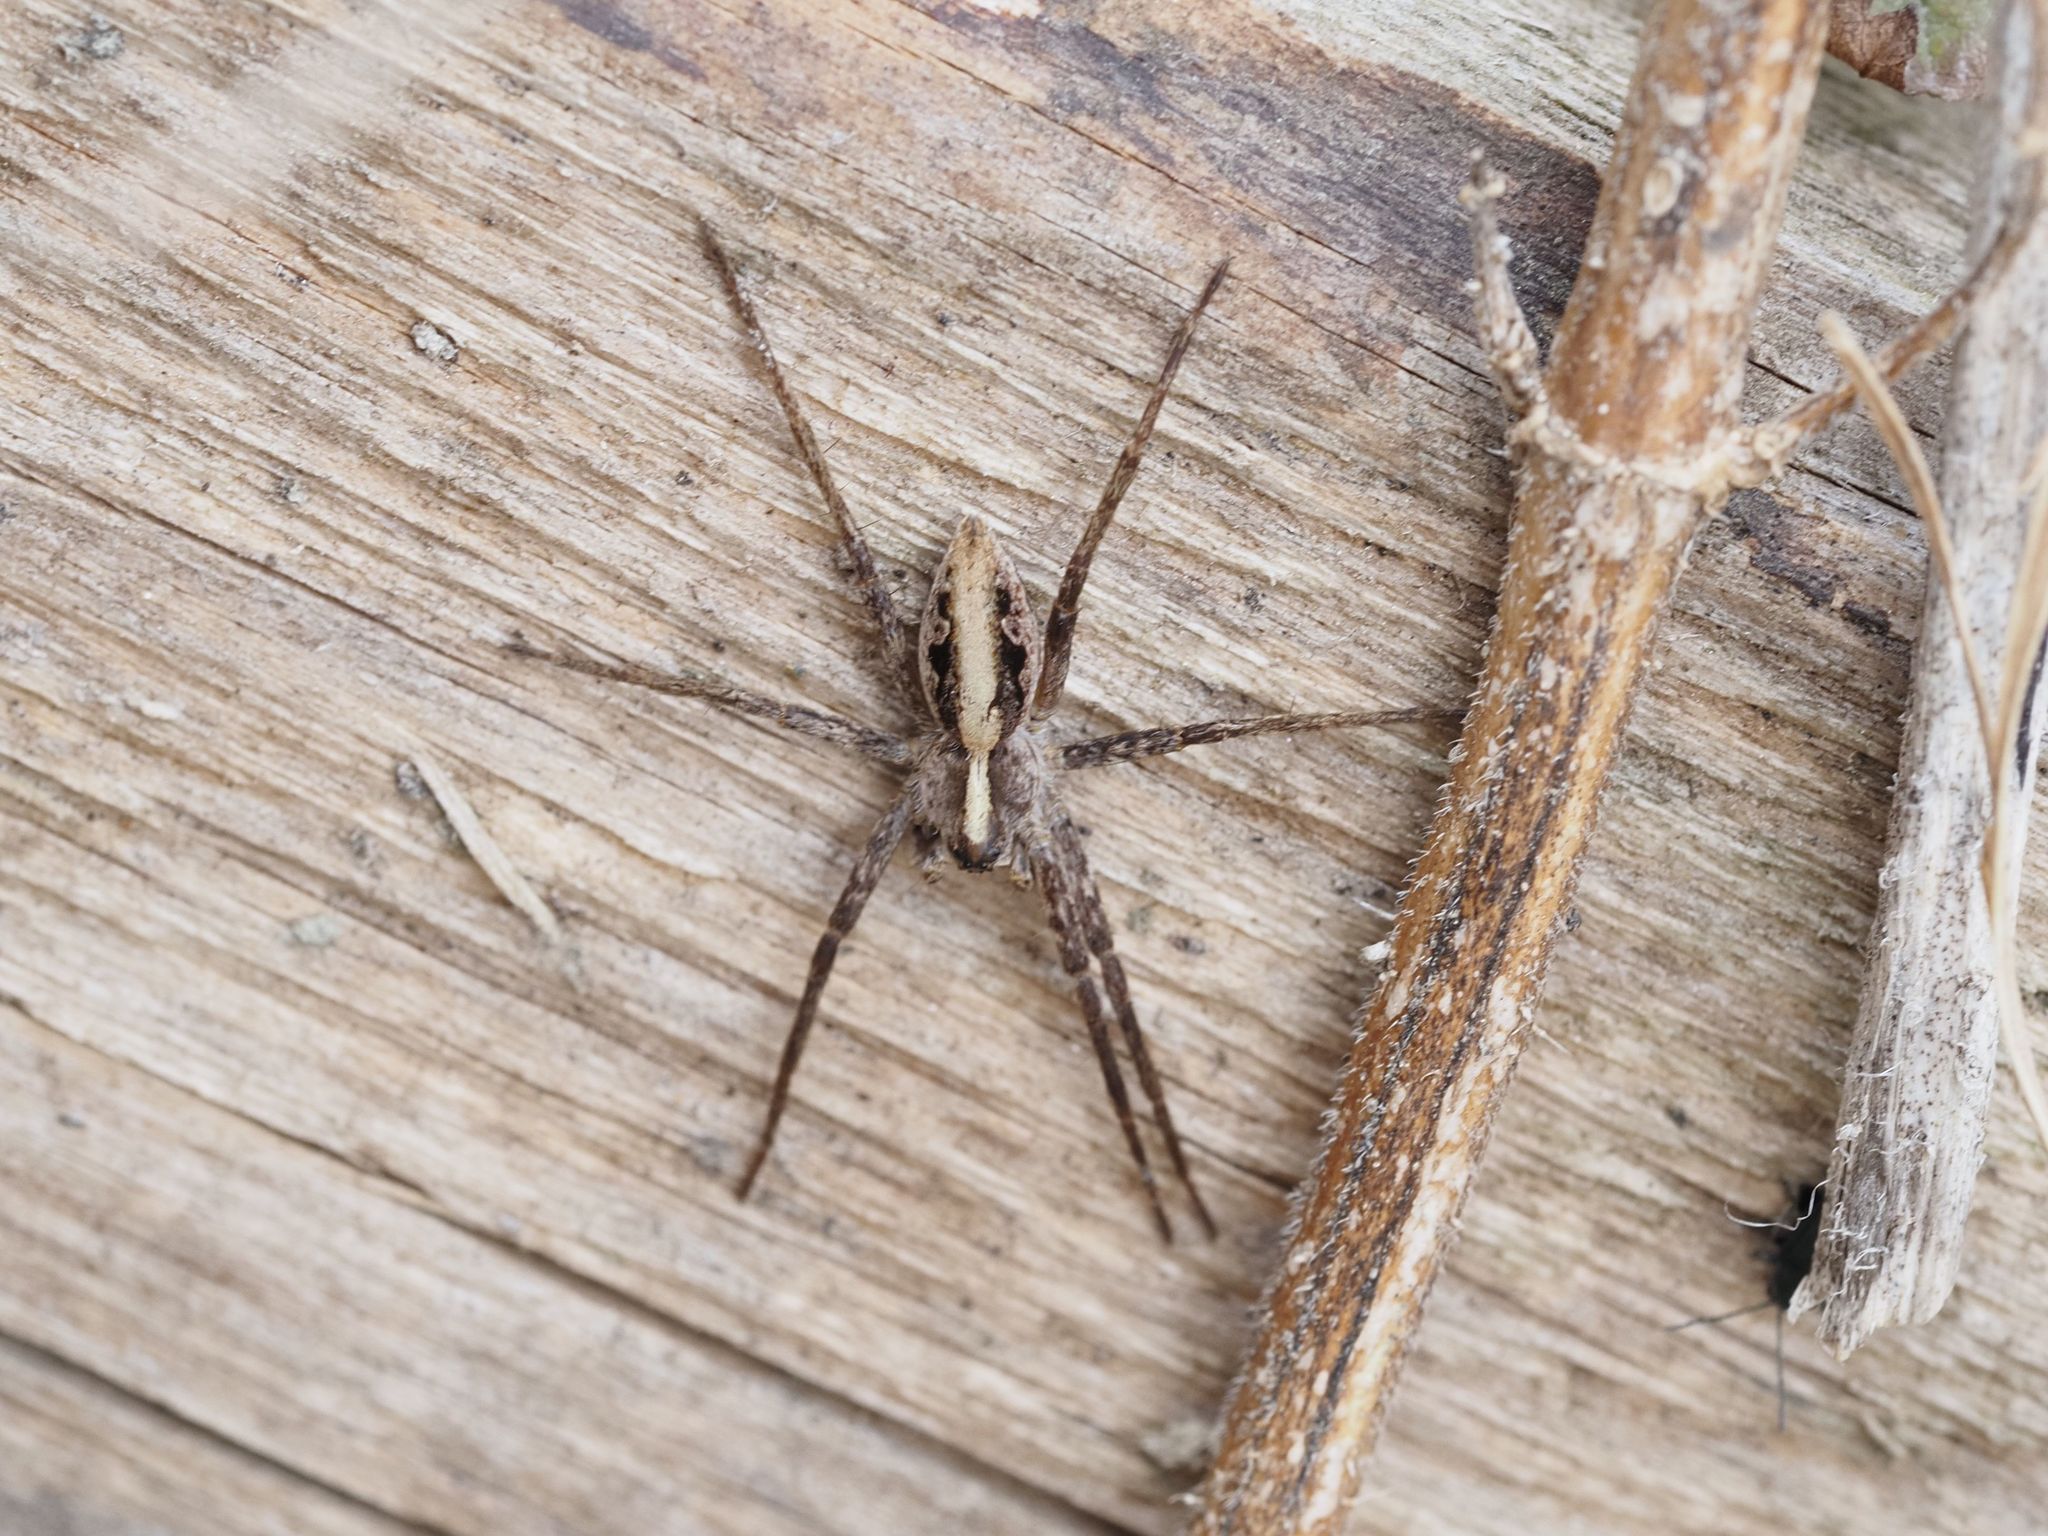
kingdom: Animalia
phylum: Arthropoda
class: Arachnida
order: Araneae
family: Pisauridae
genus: Pisaura
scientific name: Pisaura mirabilis
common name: Tent spider
